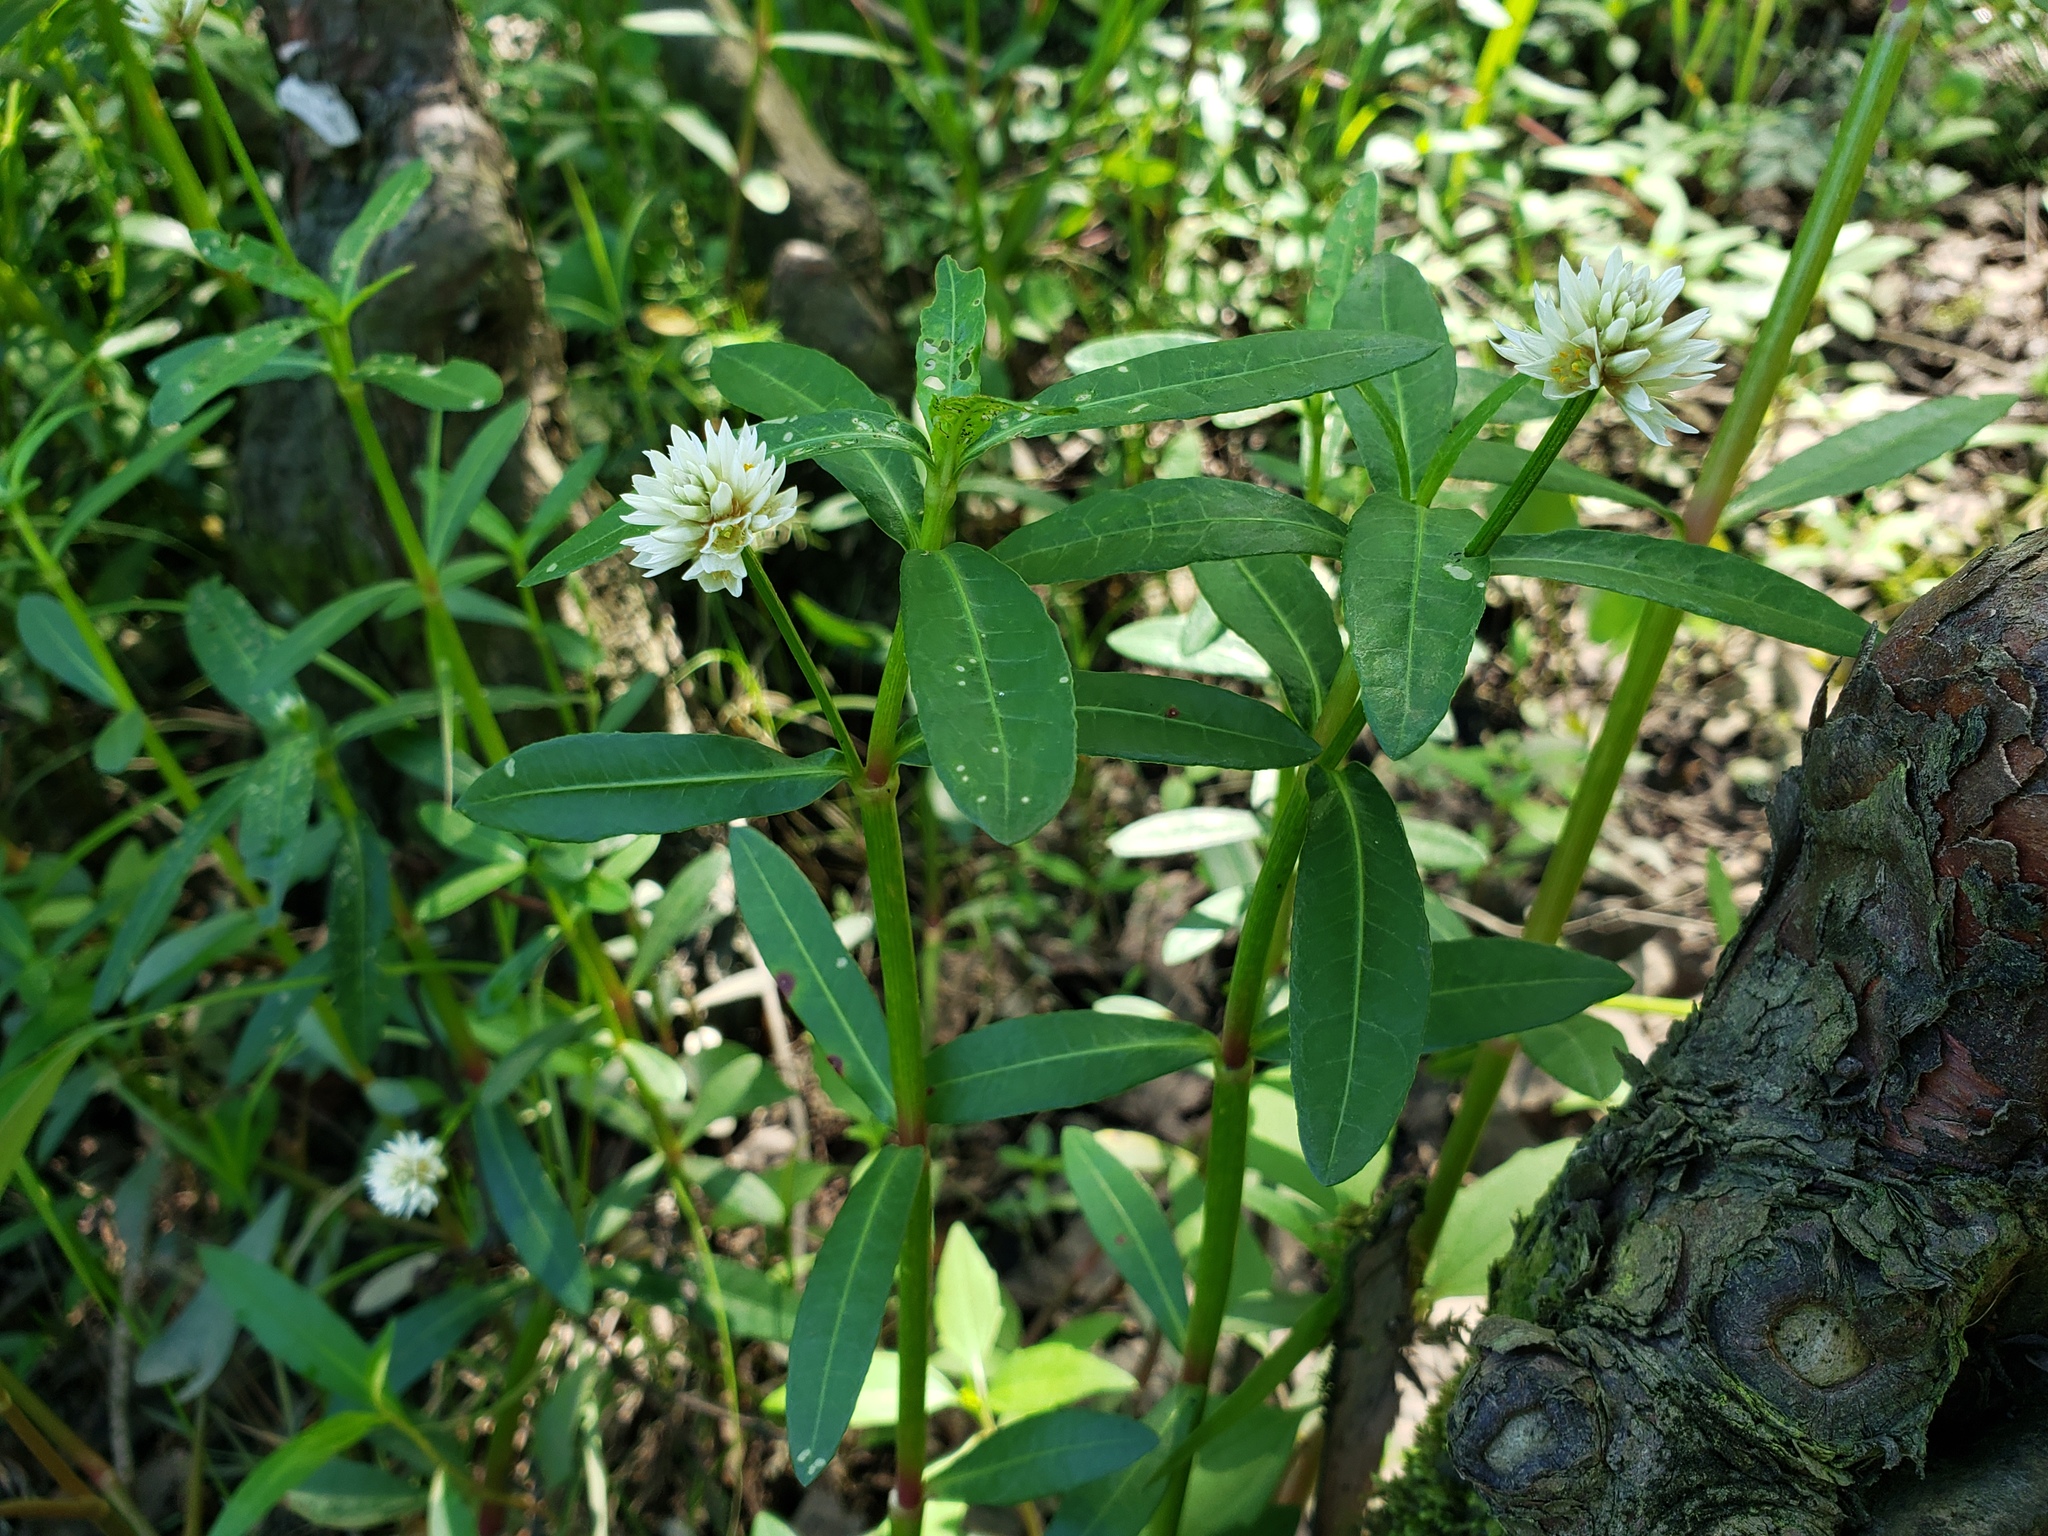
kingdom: Plantae
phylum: Tracheophyta
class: Magnoliopsida
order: Caryophyllales
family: Amaranthaceae
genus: Alternanthera
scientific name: Alternanthera philoxeroides
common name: Alligatorweed
